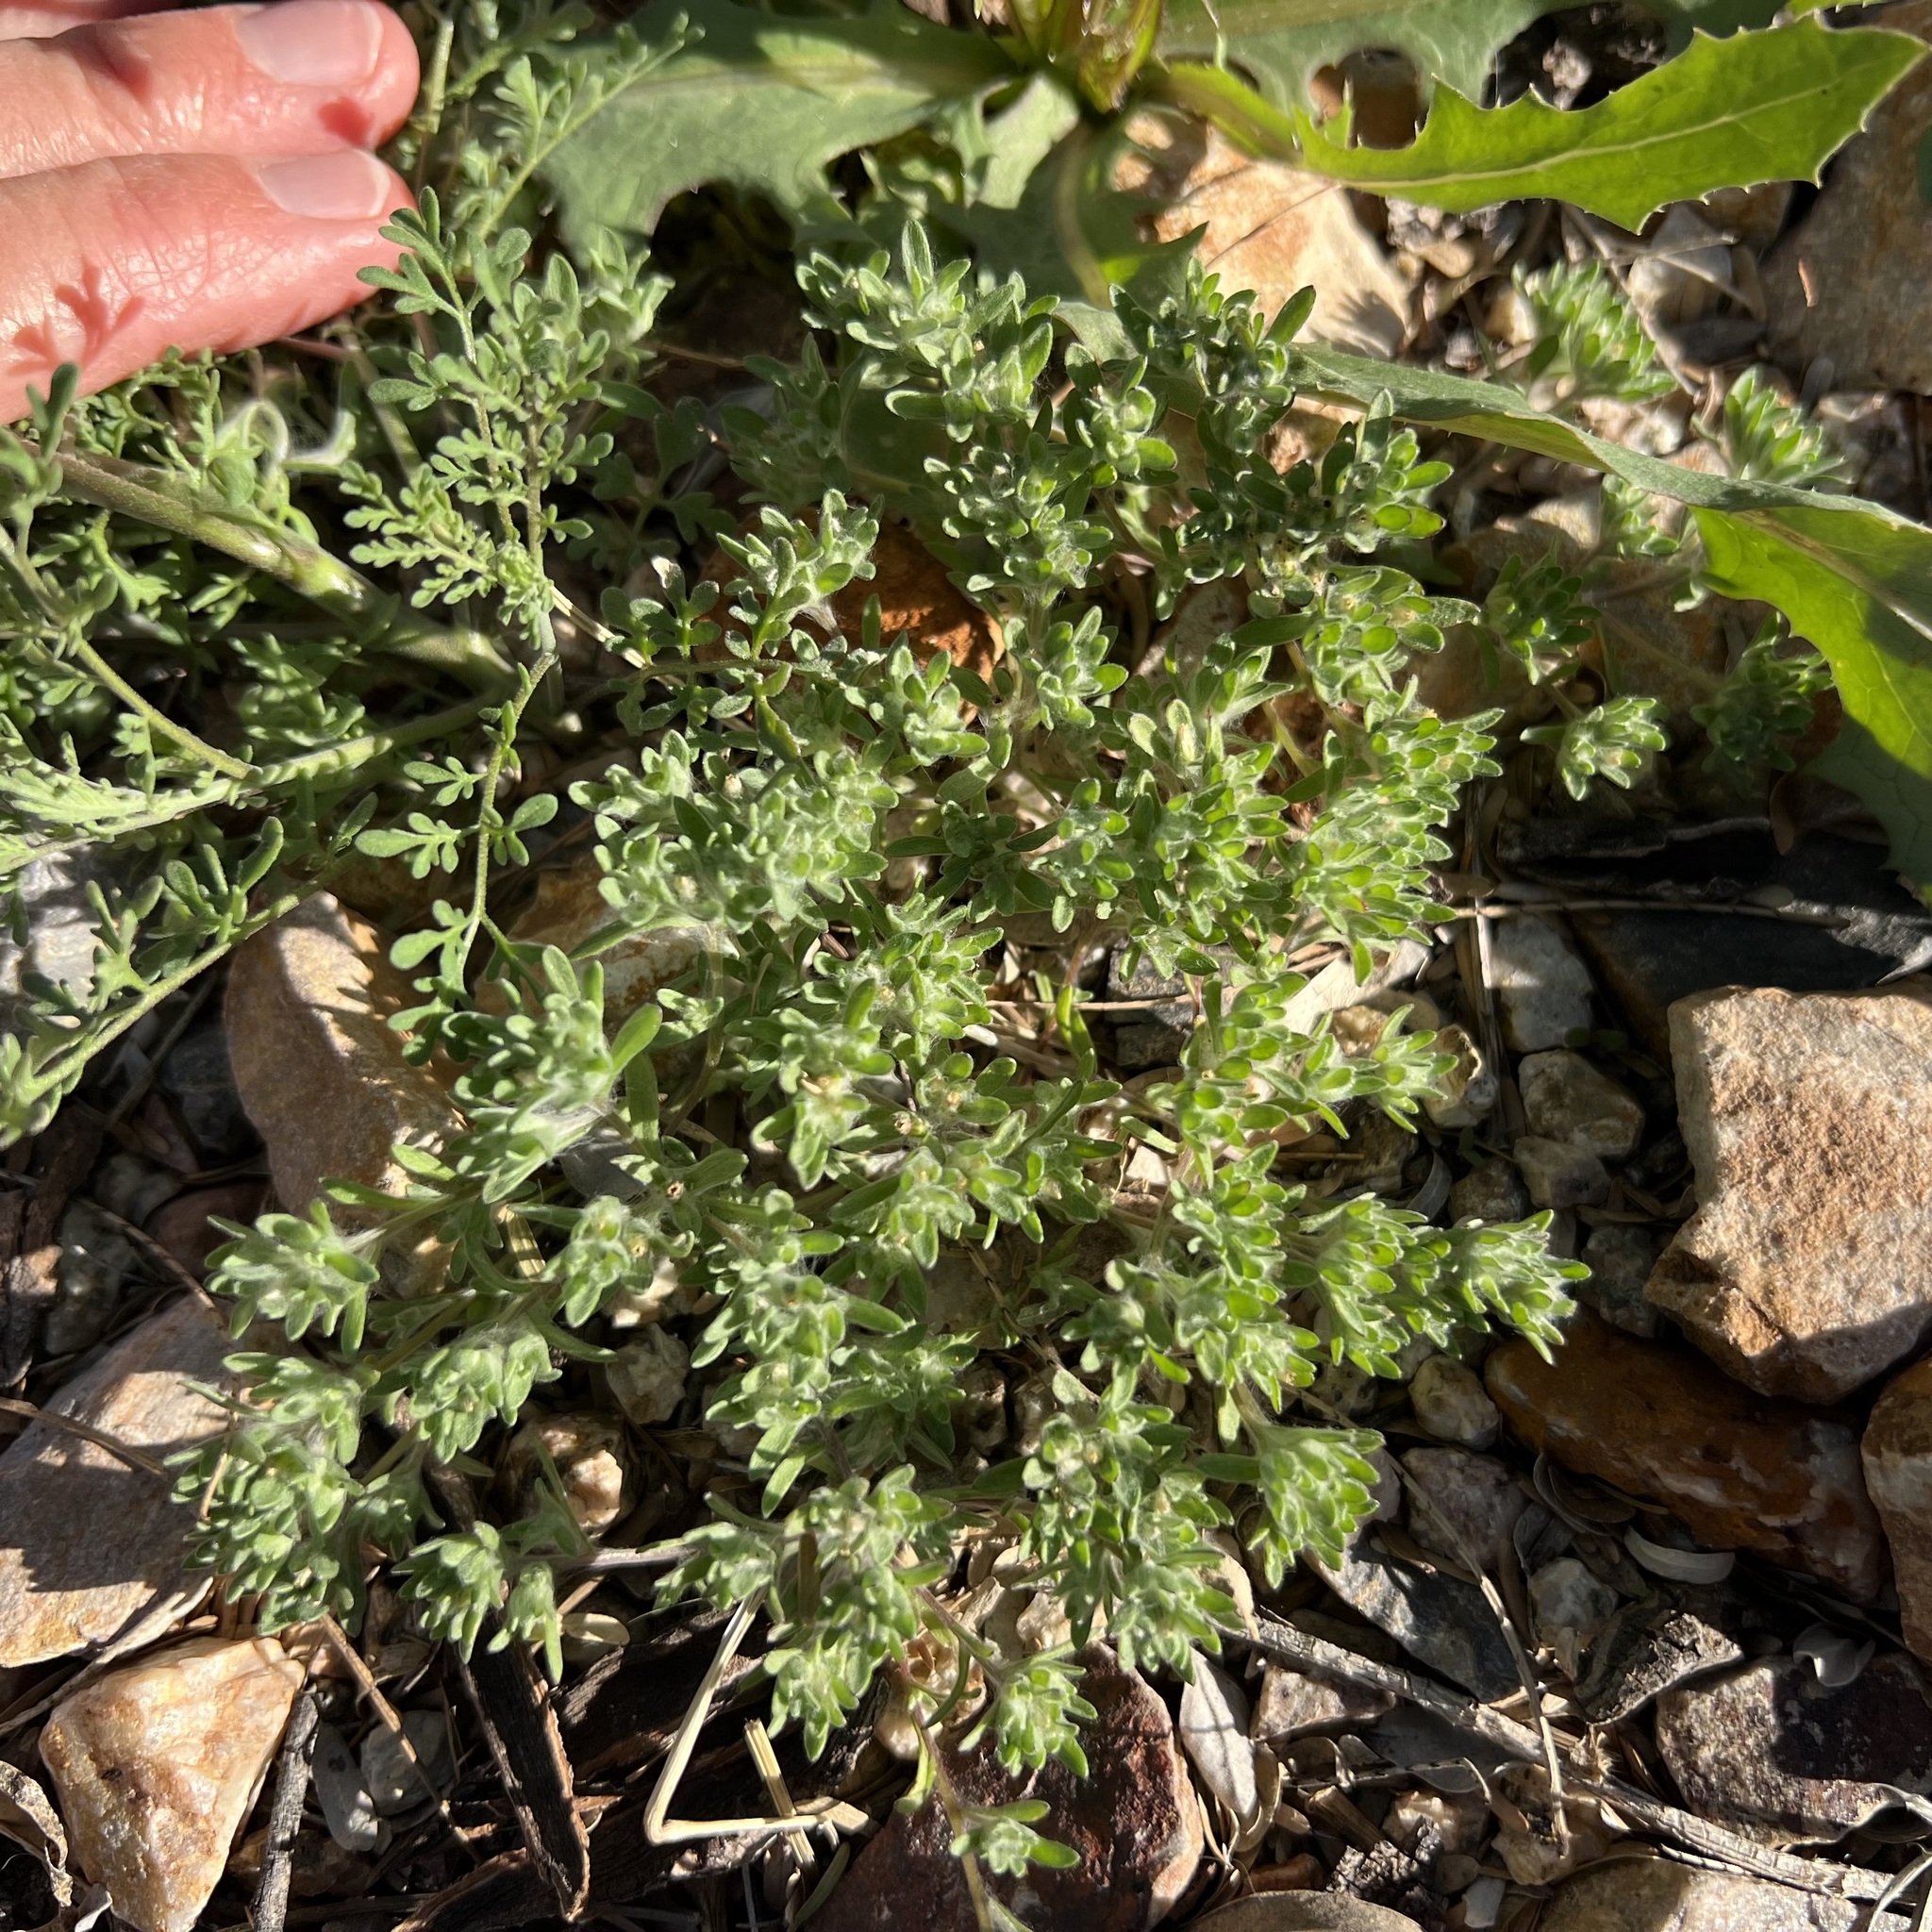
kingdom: Plantae
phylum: Tracheophyta
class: Magnoliopsida
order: Asterales
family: Asteraceae
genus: Lasiopogon
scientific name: Lasiopogon glomerulatus
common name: Green cat thorn
